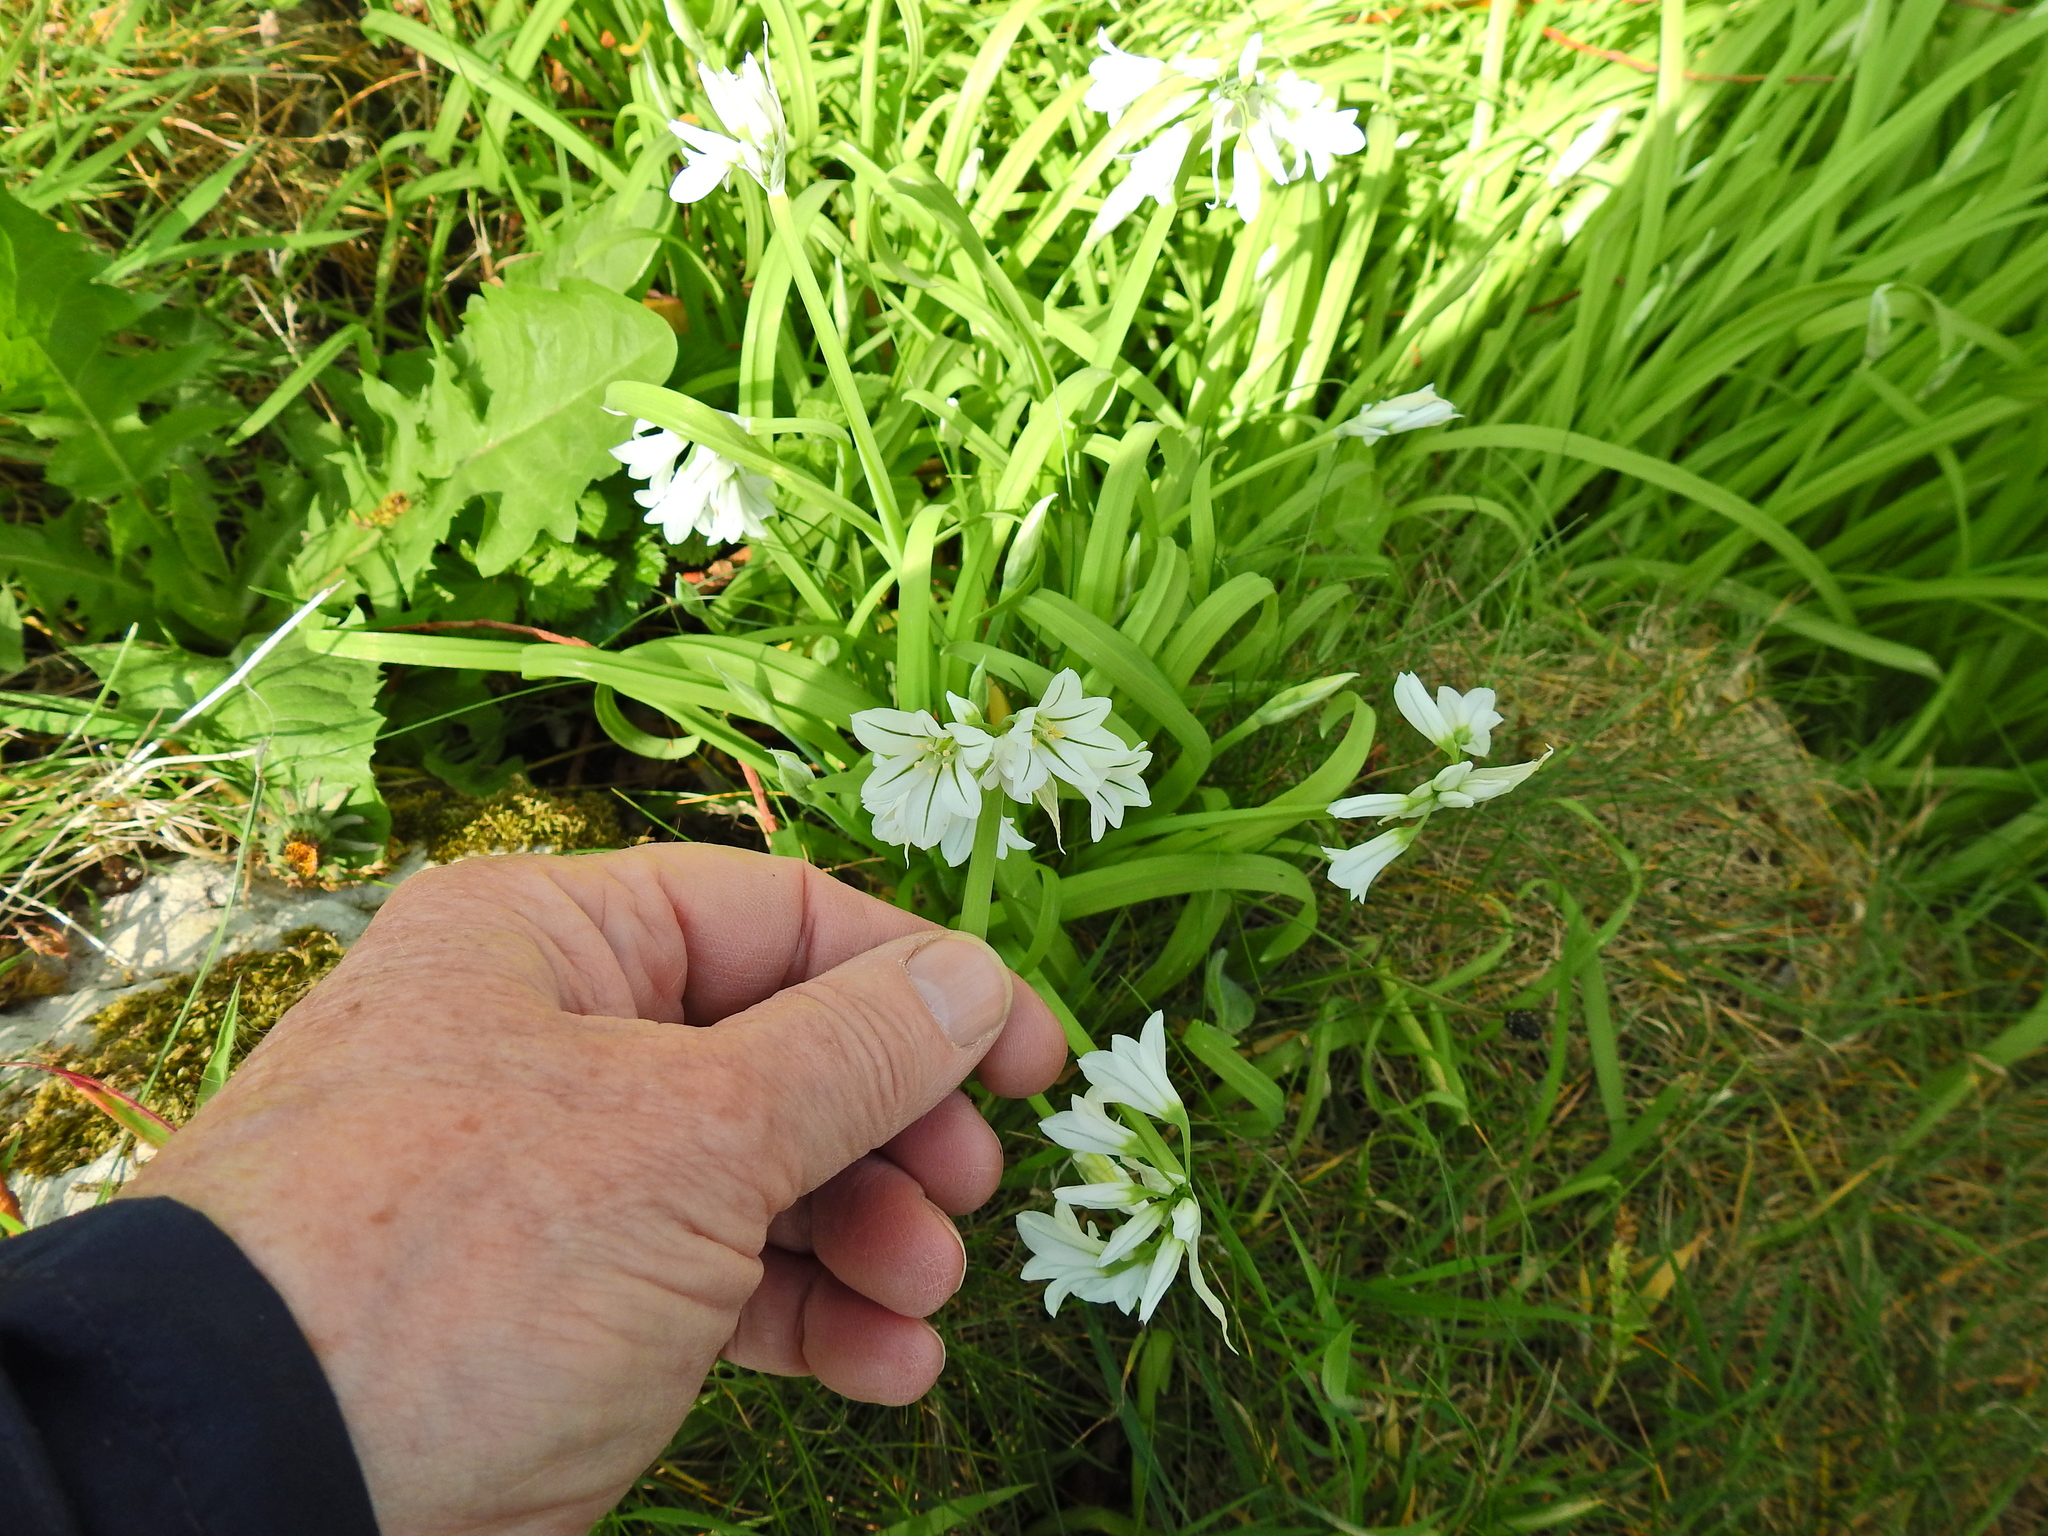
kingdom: Plantae
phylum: Tracheophyta
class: Liliopsida
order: Asparagales
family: Amaryllidaceae
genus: Allium
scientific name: Allium triquetrum
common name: Three-cornered garlic
